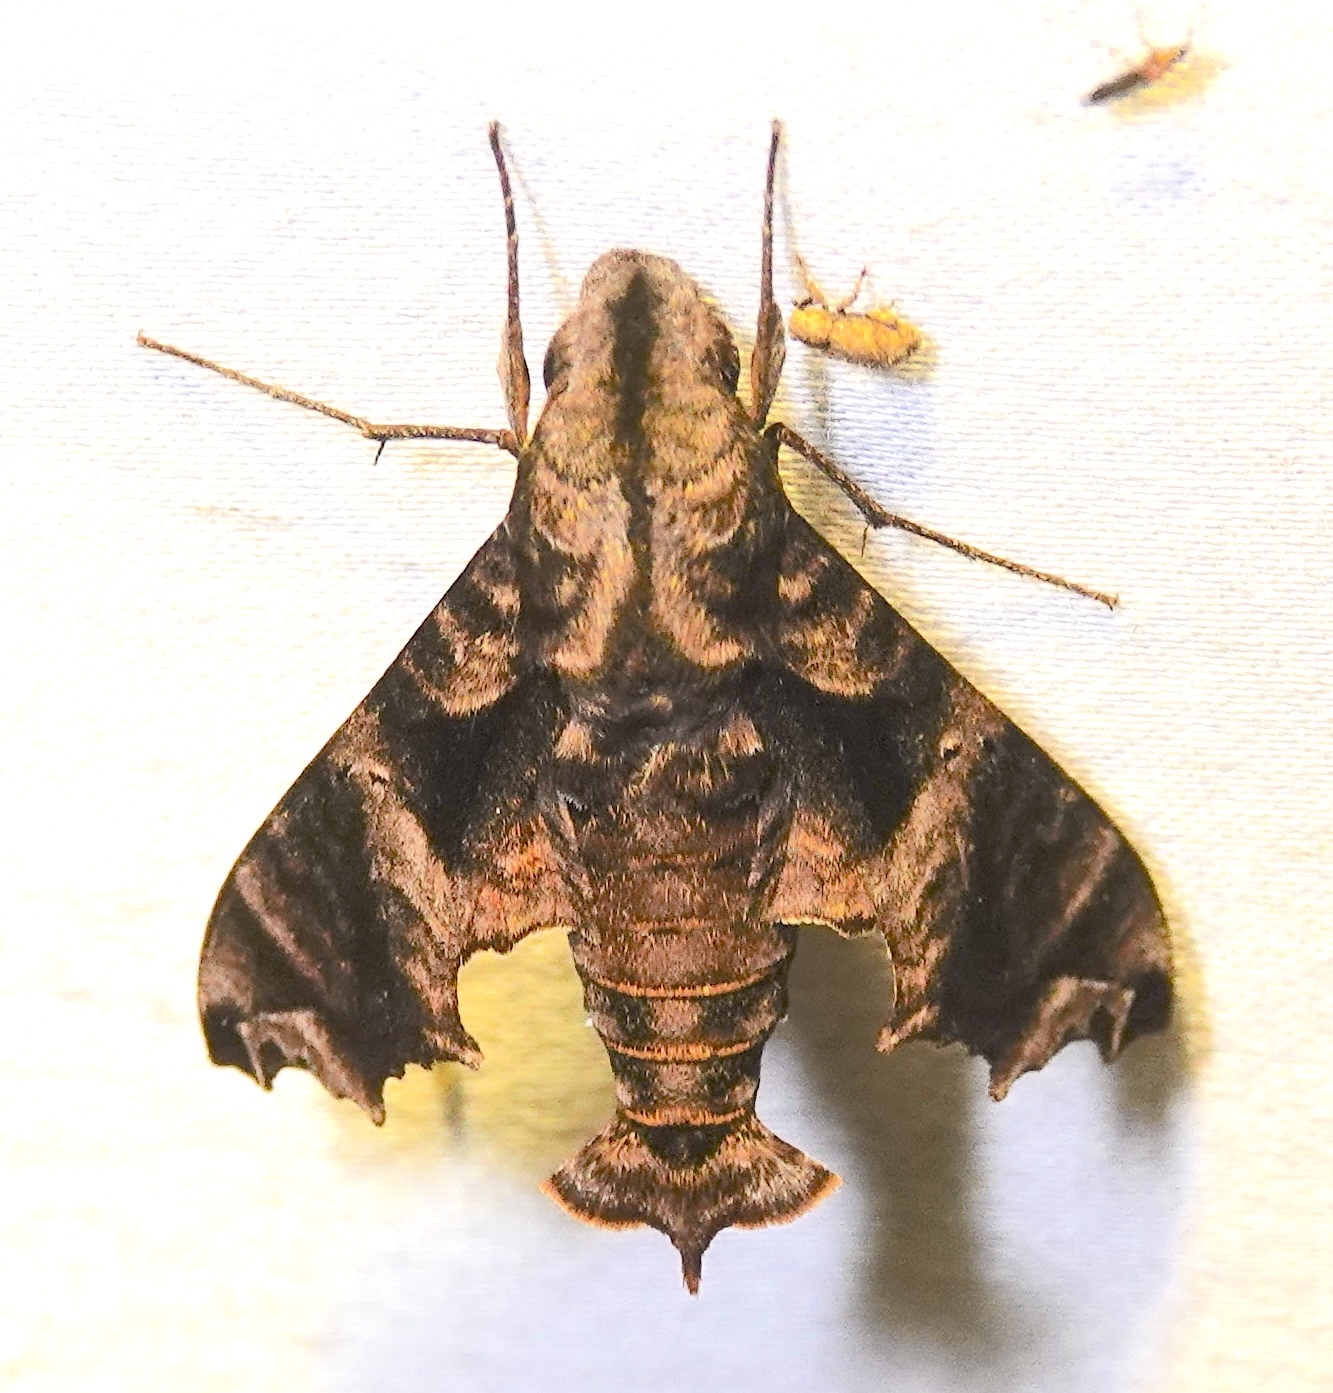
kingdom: Animalia
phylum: Arthropoda
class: Insecta
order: Lepidoptera
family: Sphingidae
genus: Nyceryx
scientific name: Nyceryx eximia
